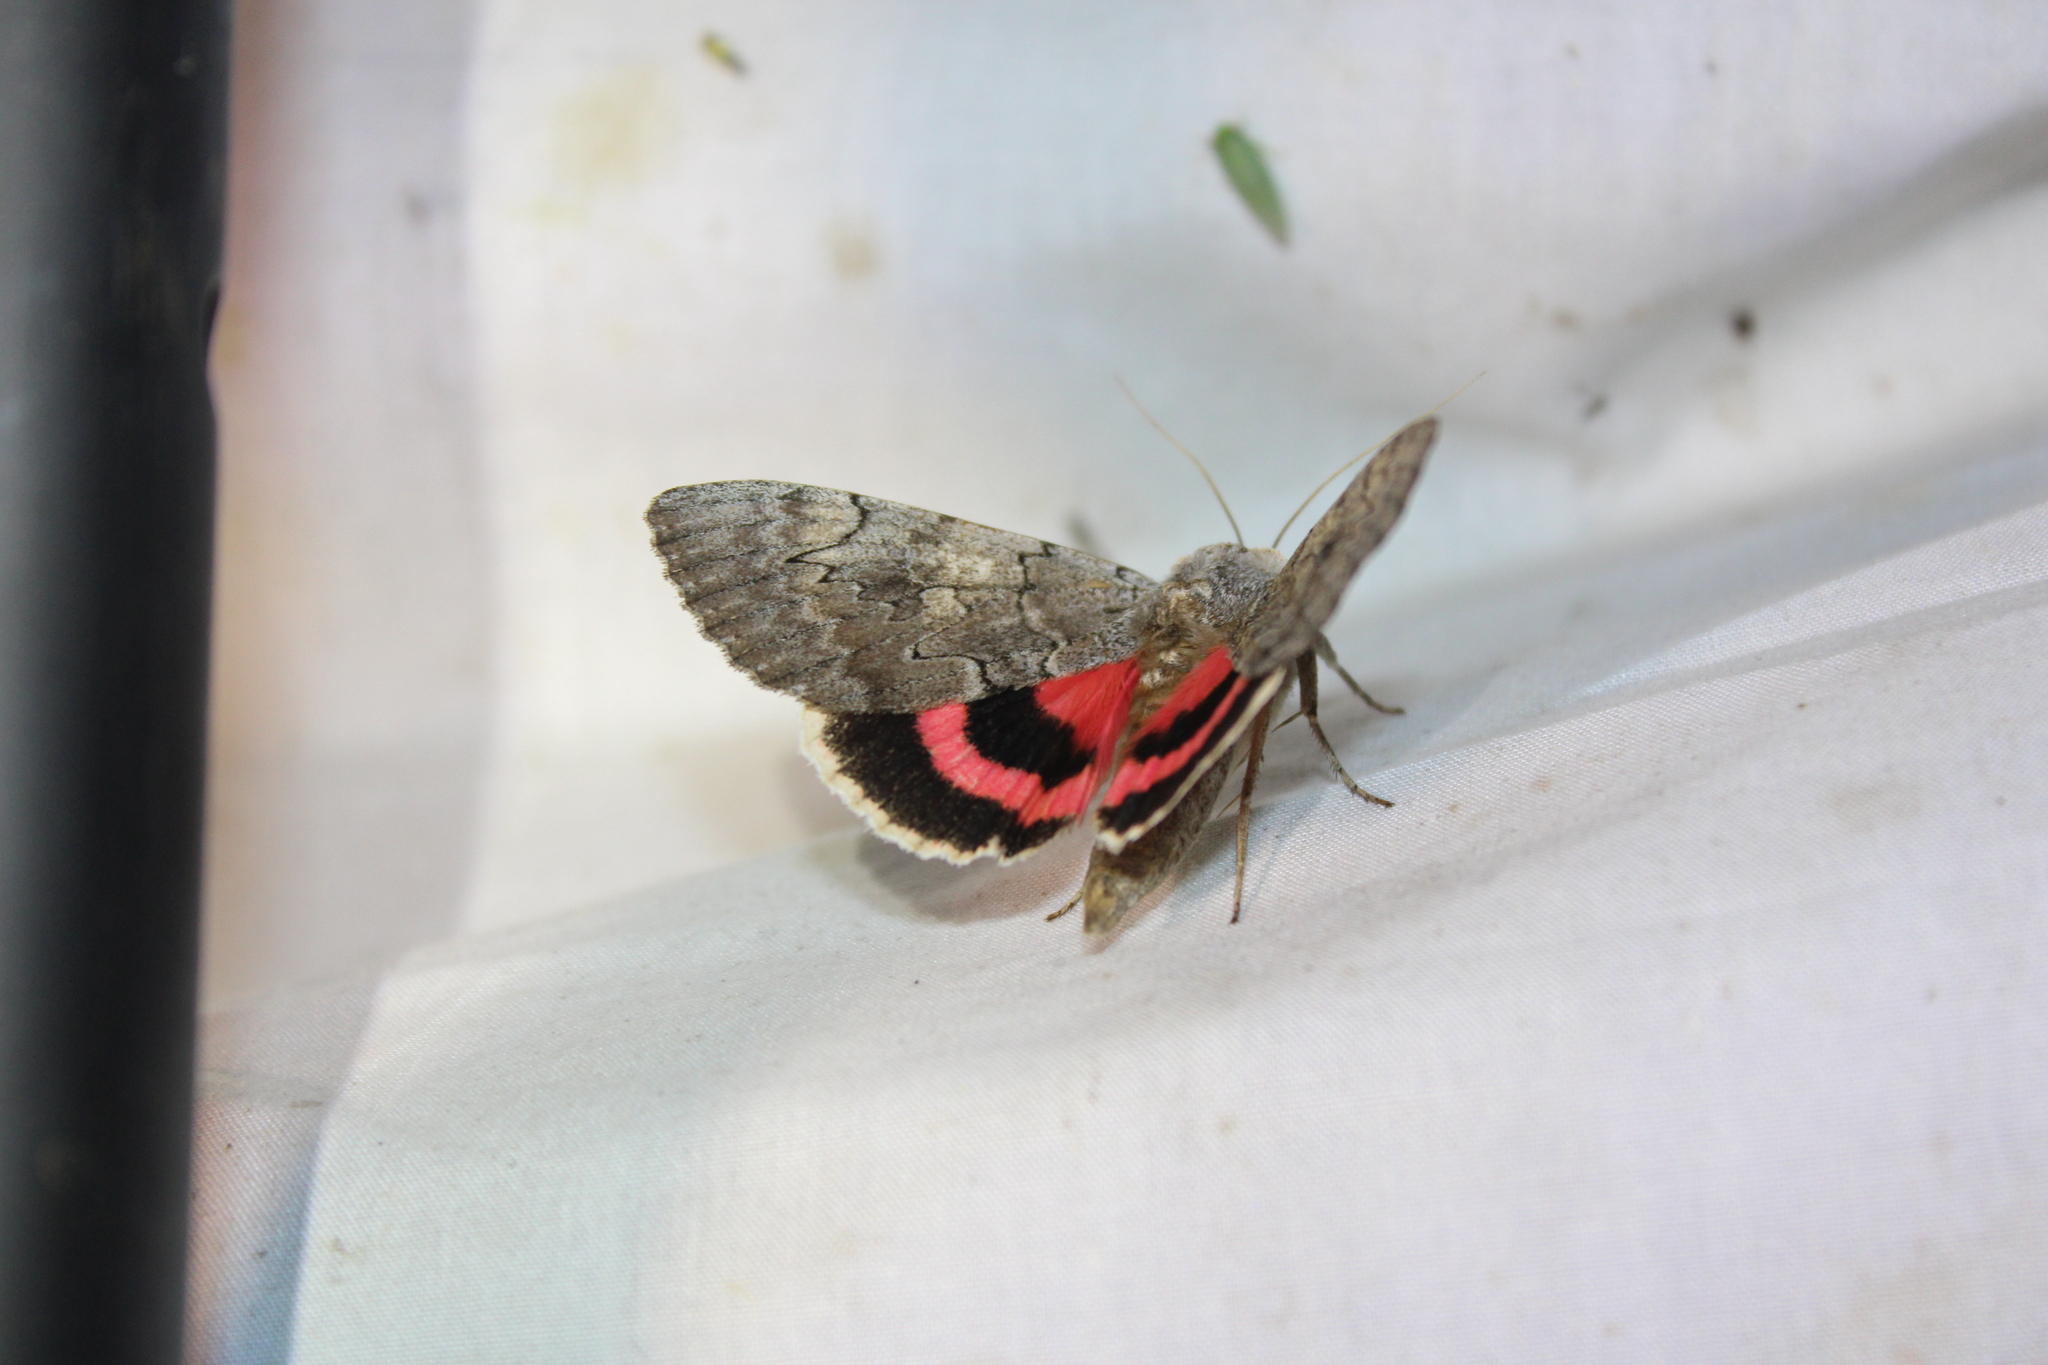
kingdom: Animalia
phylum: Arthropoda
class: Insecta
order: Lepidoptera
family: Erebidae
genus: Catocala
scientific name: Catocala concumbens
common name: Pink underwing
